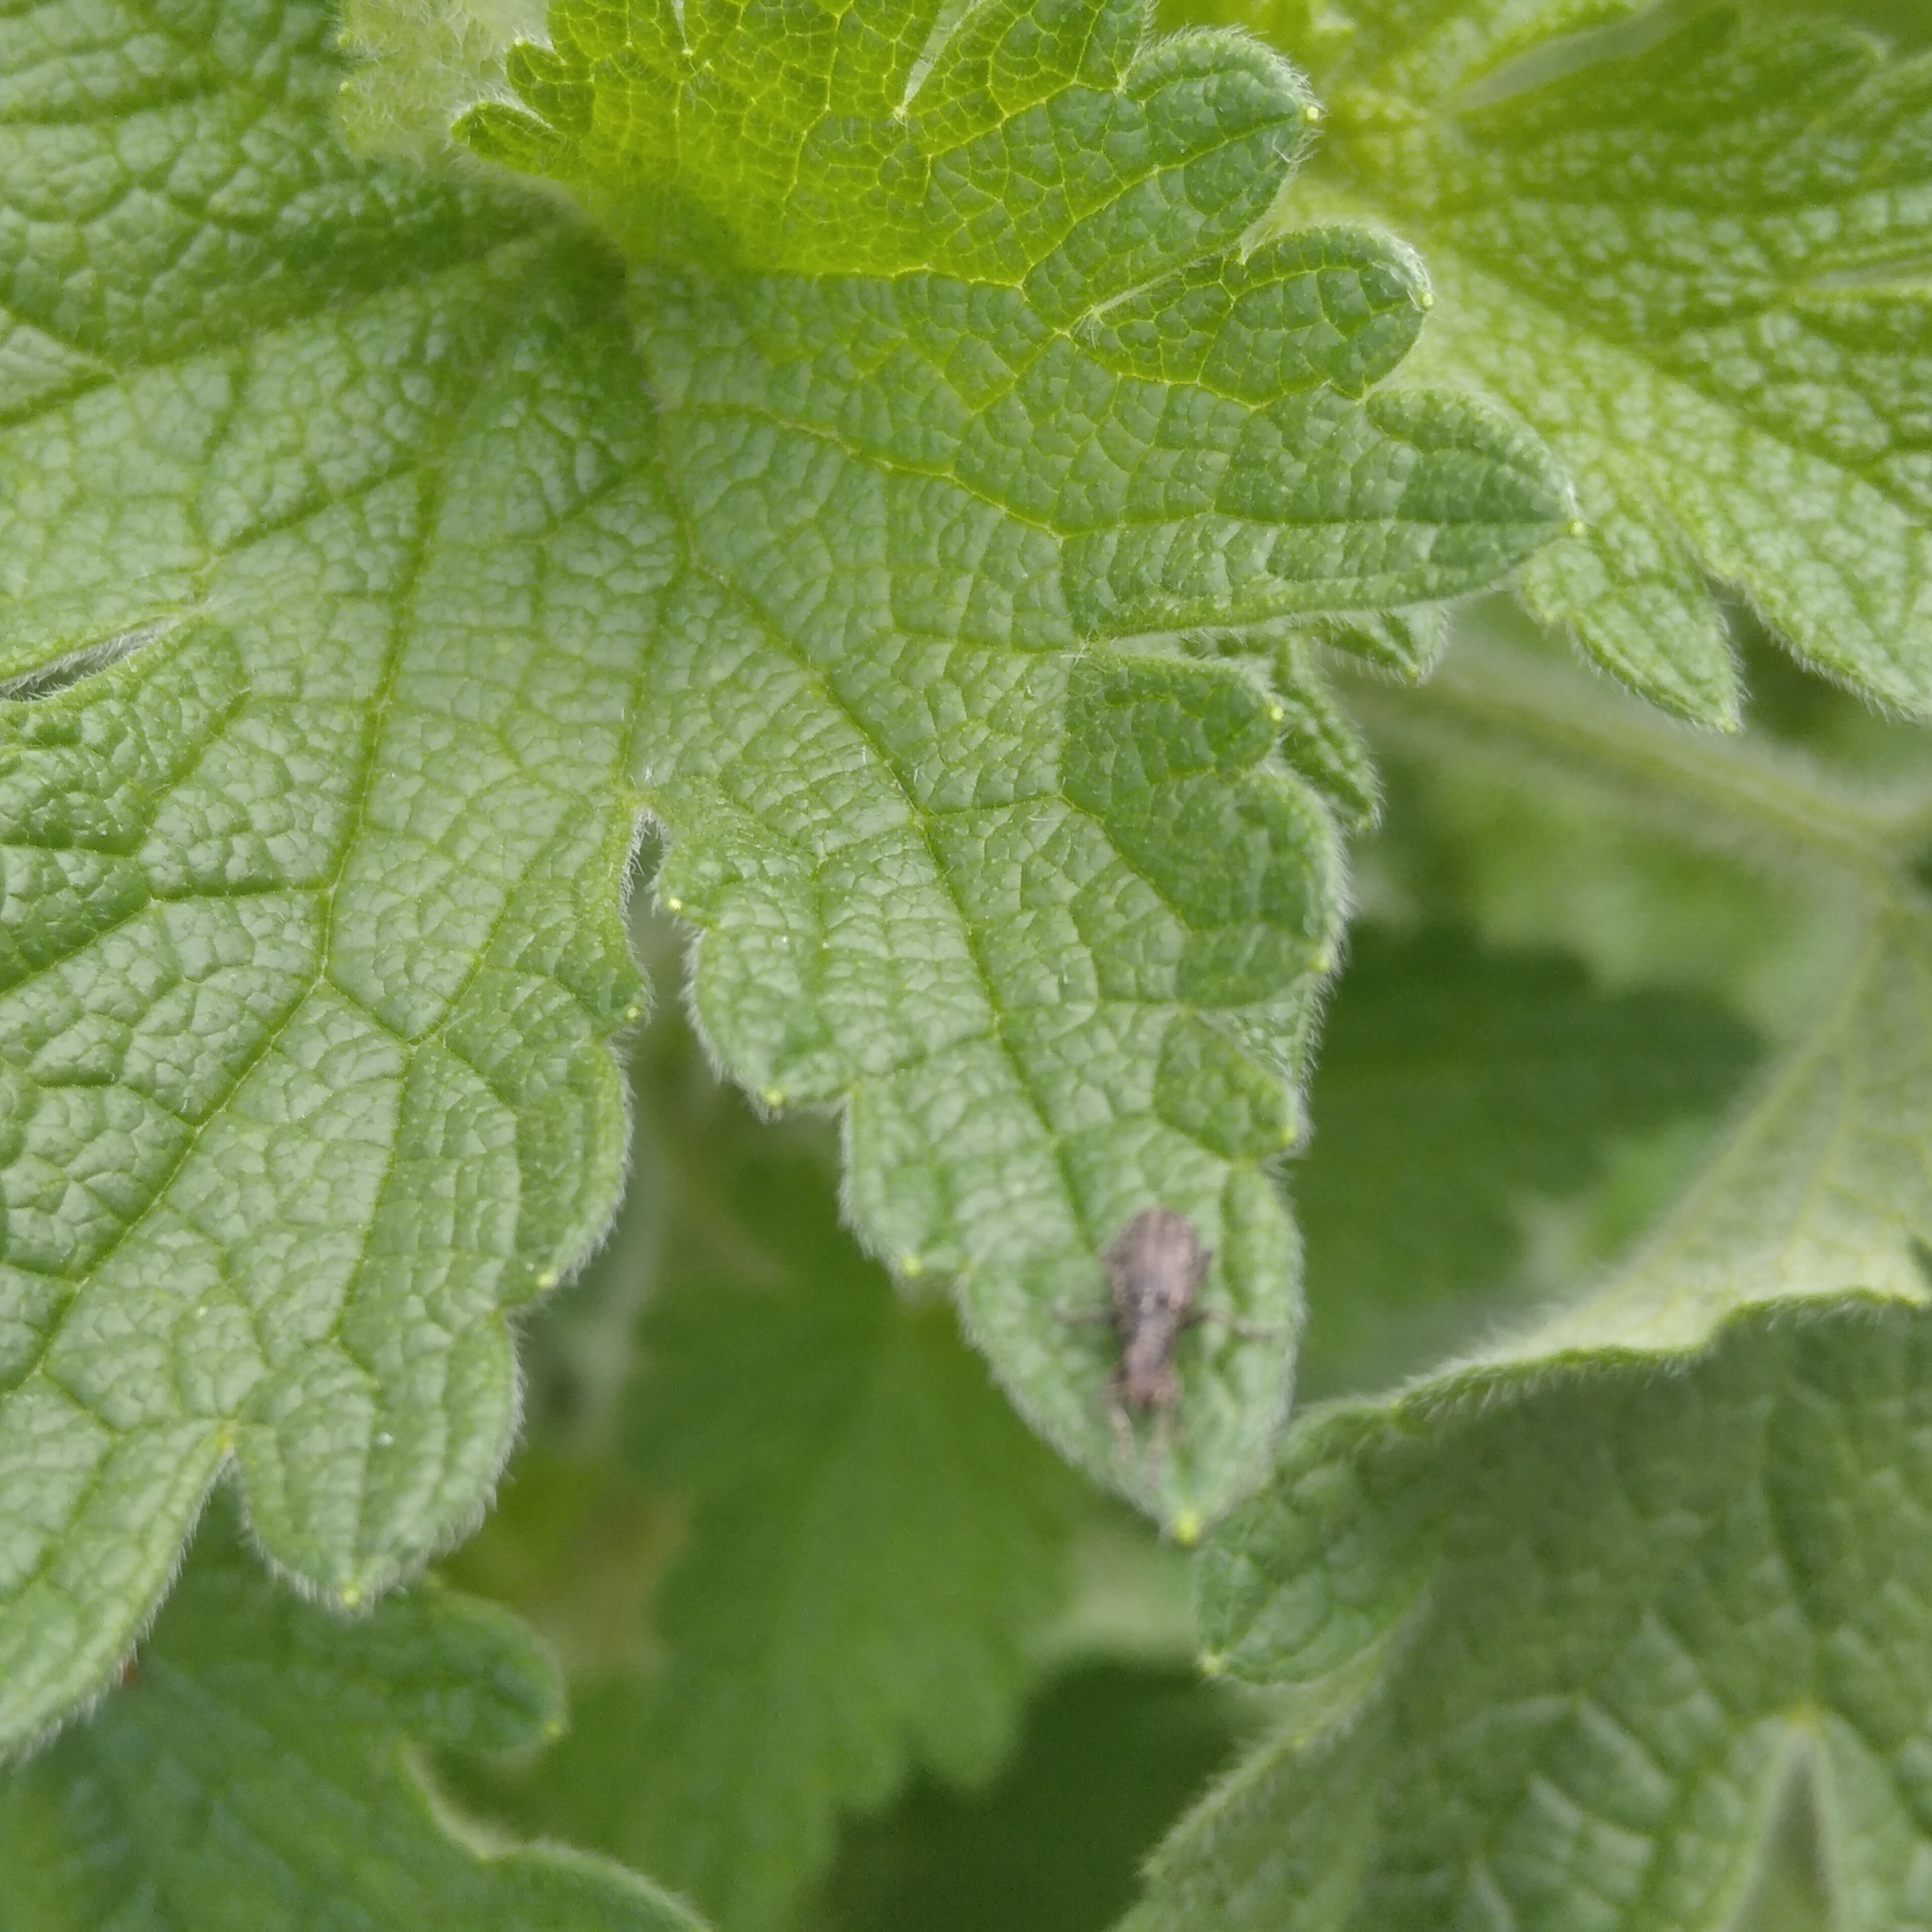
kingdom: Animalia
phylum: Arthropoda
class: Insecta
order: Coleoptera
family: Curculionidae
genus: Sitona
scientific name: Sitona inops
